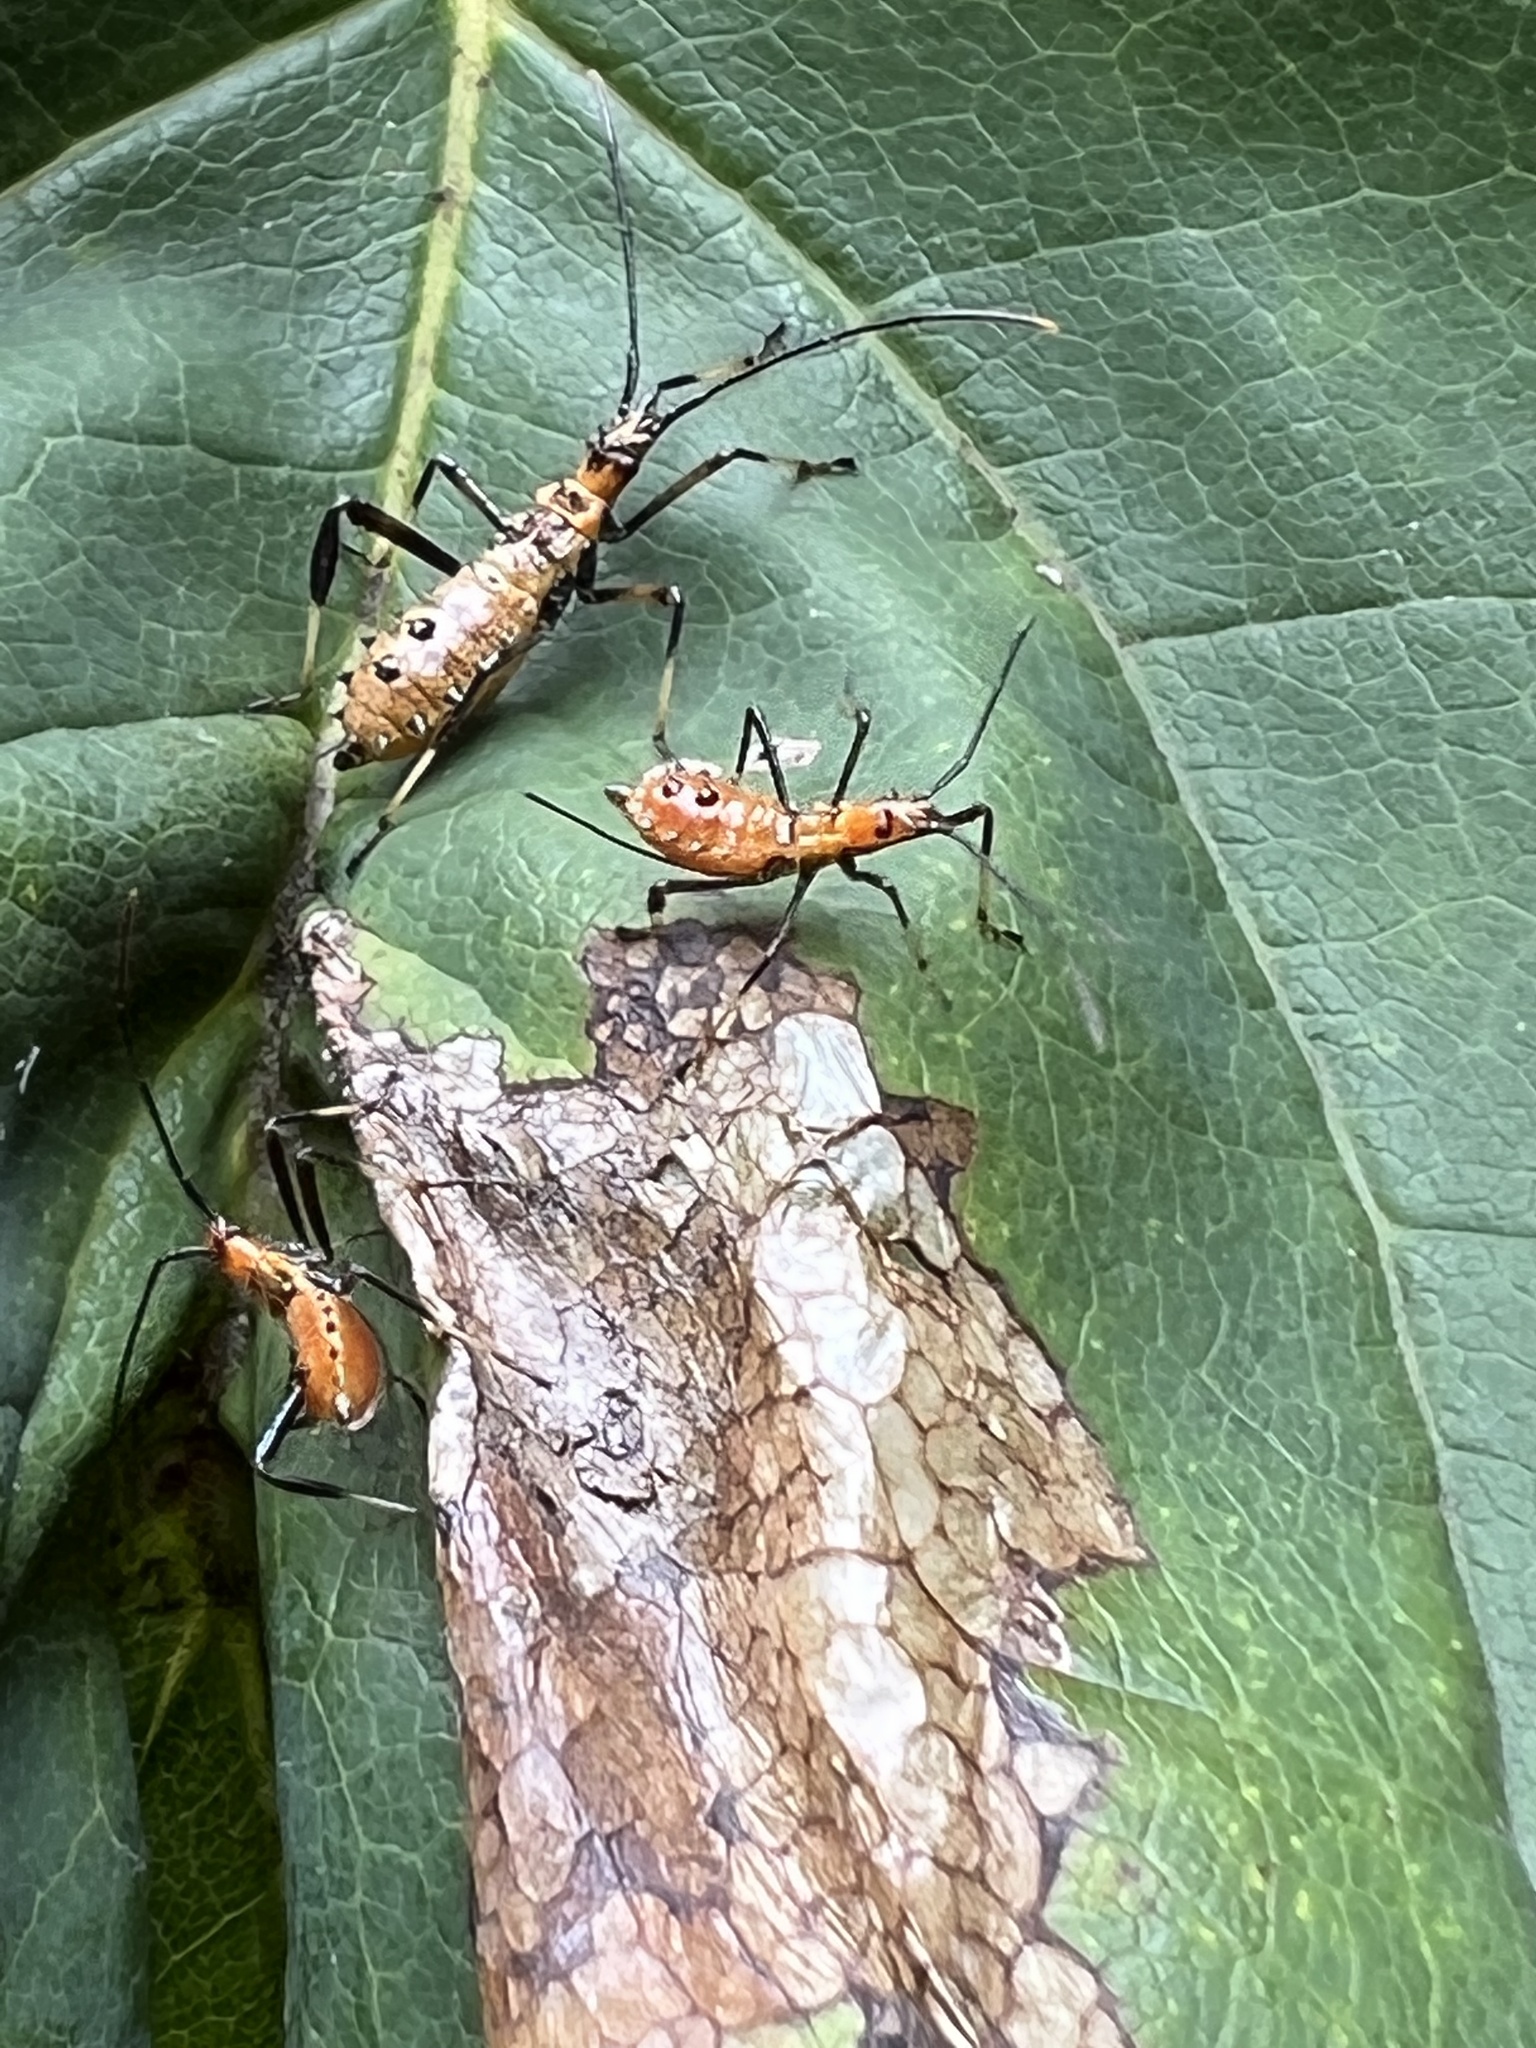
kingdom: Animalia
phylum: Arthropoda
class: Insecta
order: Hemiptera
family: Coreidae
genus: Leptoglossus
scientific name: Leptoglossus fulvicornis
